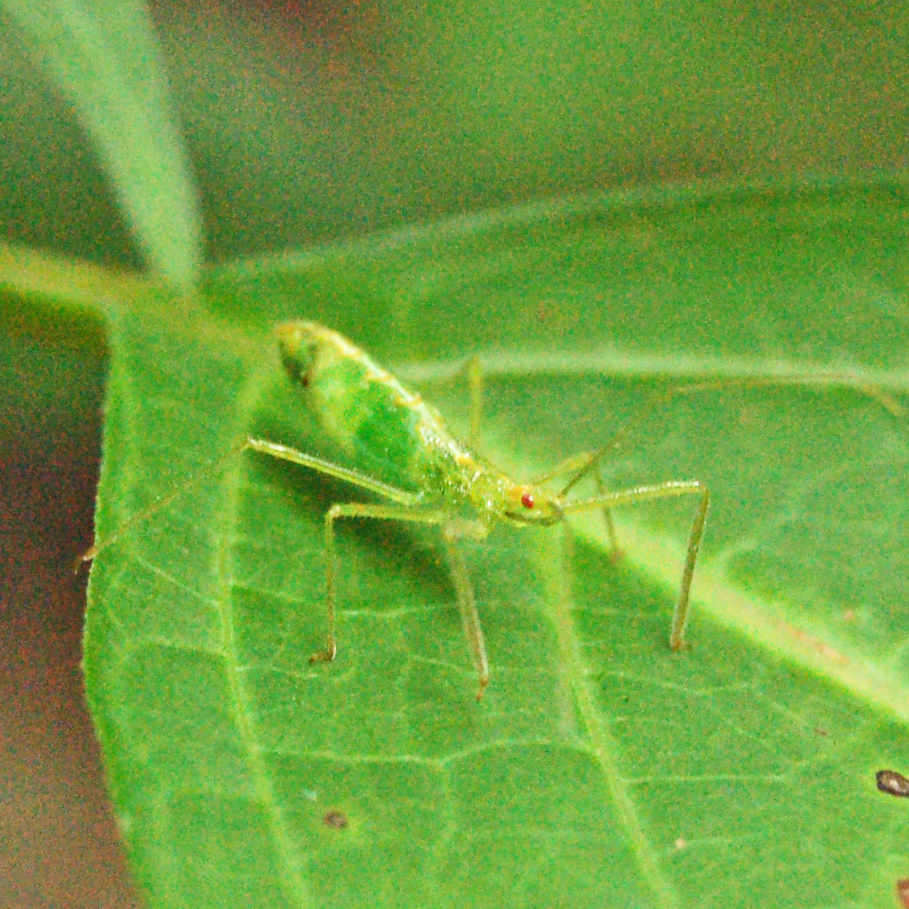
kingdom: Animalia
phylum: Arthropoda
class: Insecta
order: Hemiptera
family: Reduviidae
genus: Zelus
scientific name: Zelus luridus
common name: Pale green assassin bug
